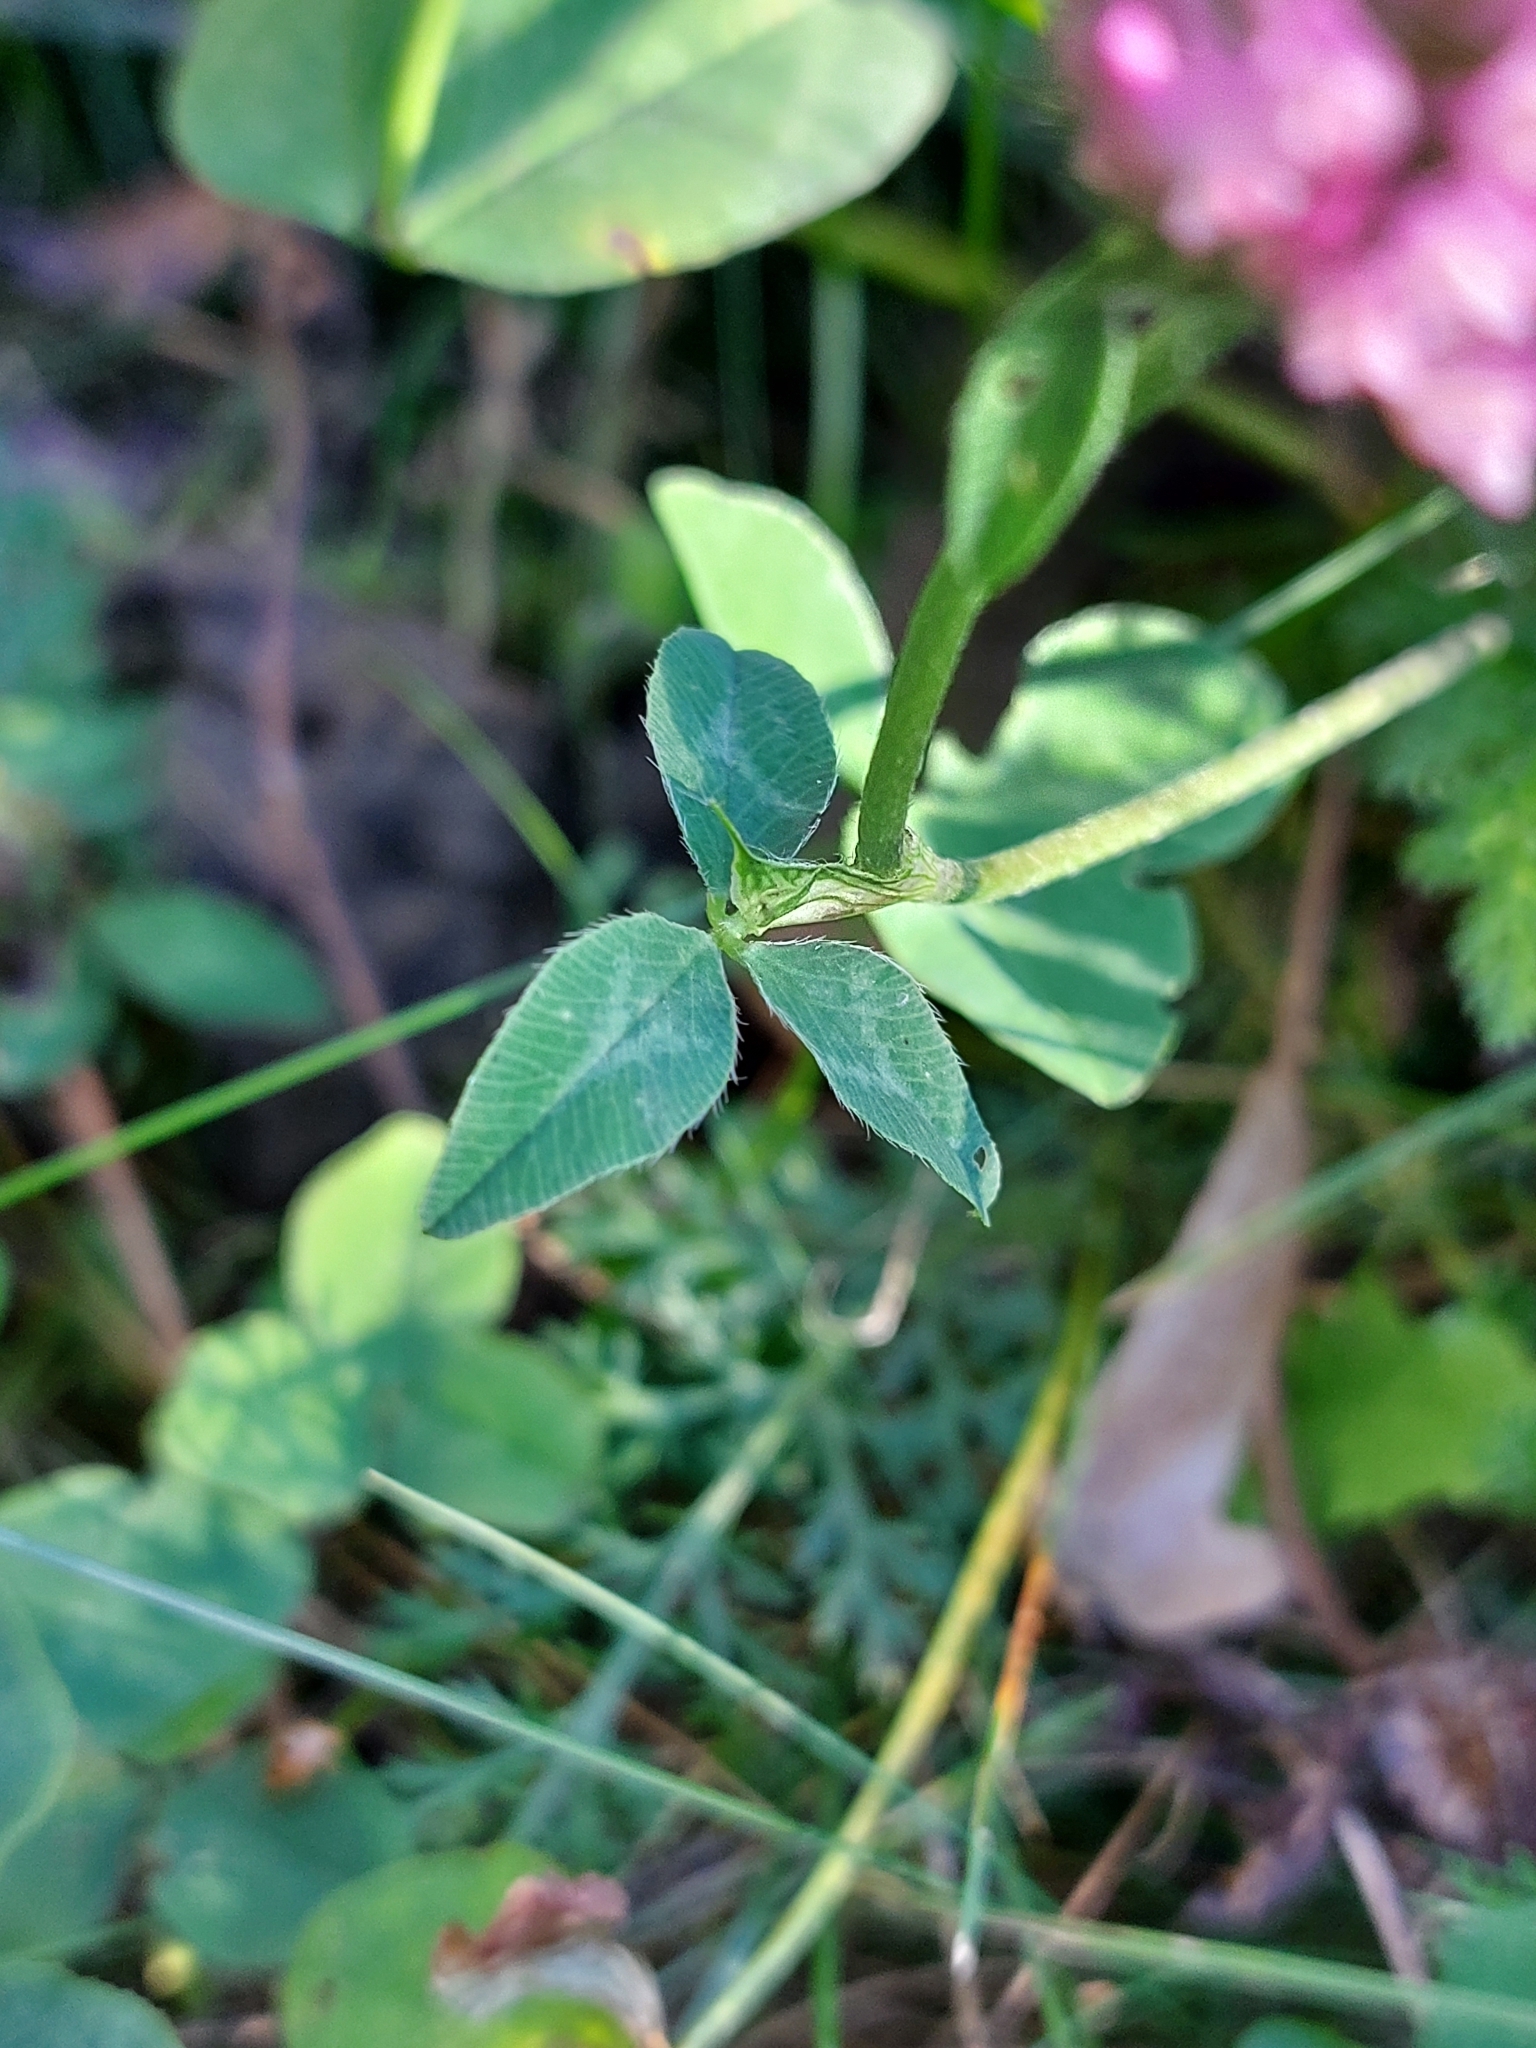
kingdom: Plantae
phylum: Tracheophyta
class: Magnoliopsida
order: Fabales
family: Fabaceae
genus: Trifolium
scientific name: Trifolium pratense
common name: Red clover
